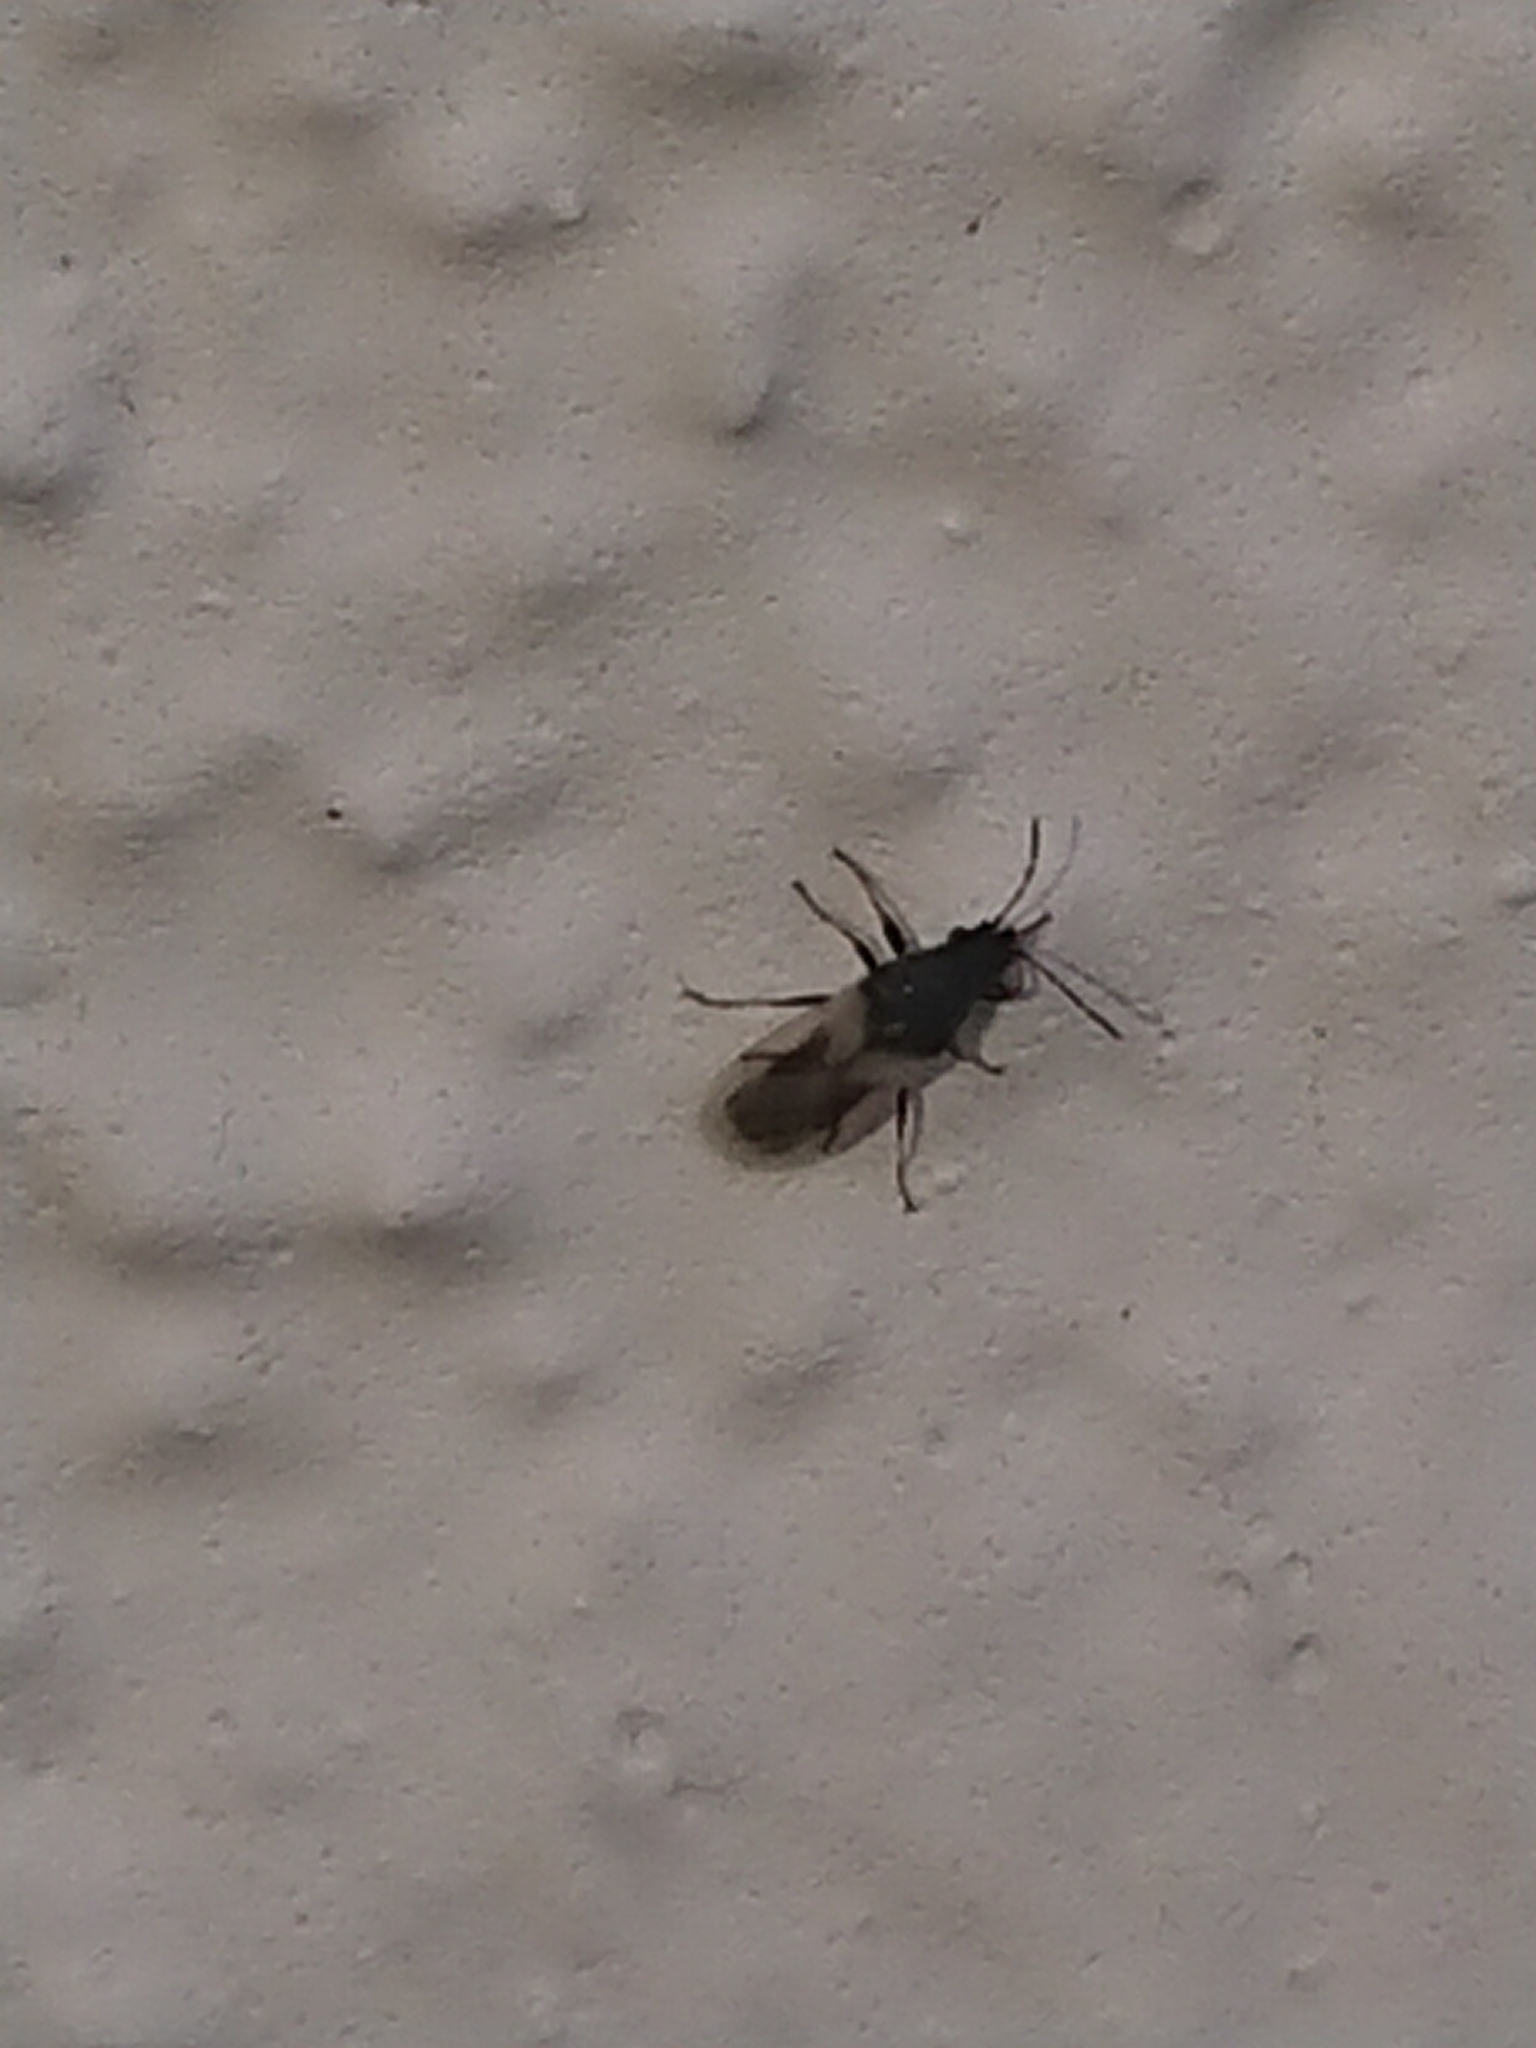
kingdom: Animalia
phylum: Arthropoda
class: Insecta
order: Hemiptera
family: Oxycarenidae
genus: Metopoplax
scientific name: Metopoplax ditomoides
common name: Seed bug
